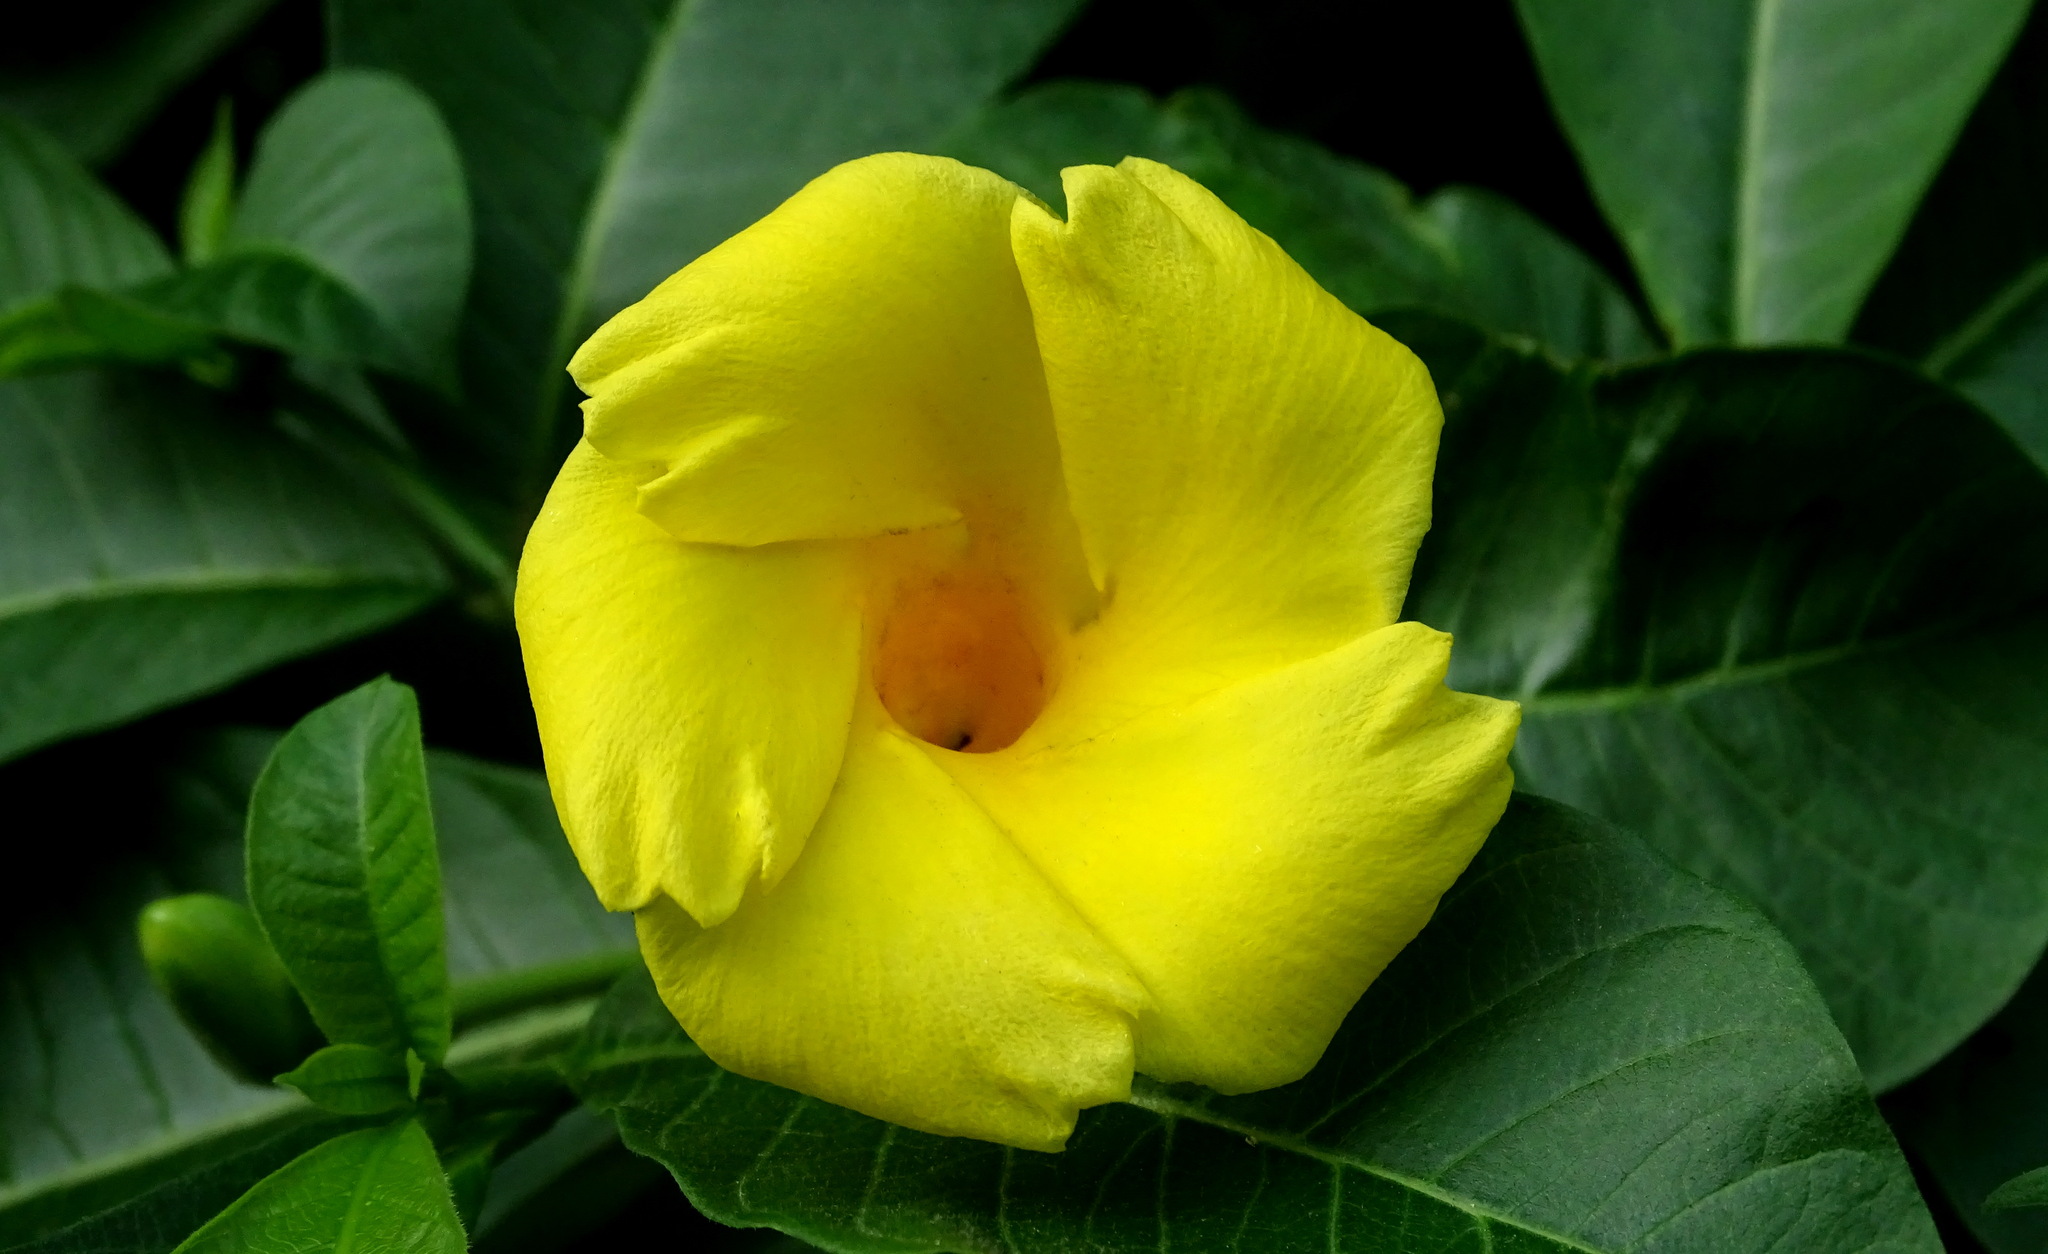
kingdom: Plantae
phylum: Tracheophyta
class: Magnoliopsida
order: Gentianales
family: Apocynaceae
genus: Tabernaemontana
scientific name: Tabernaemontana glabra
